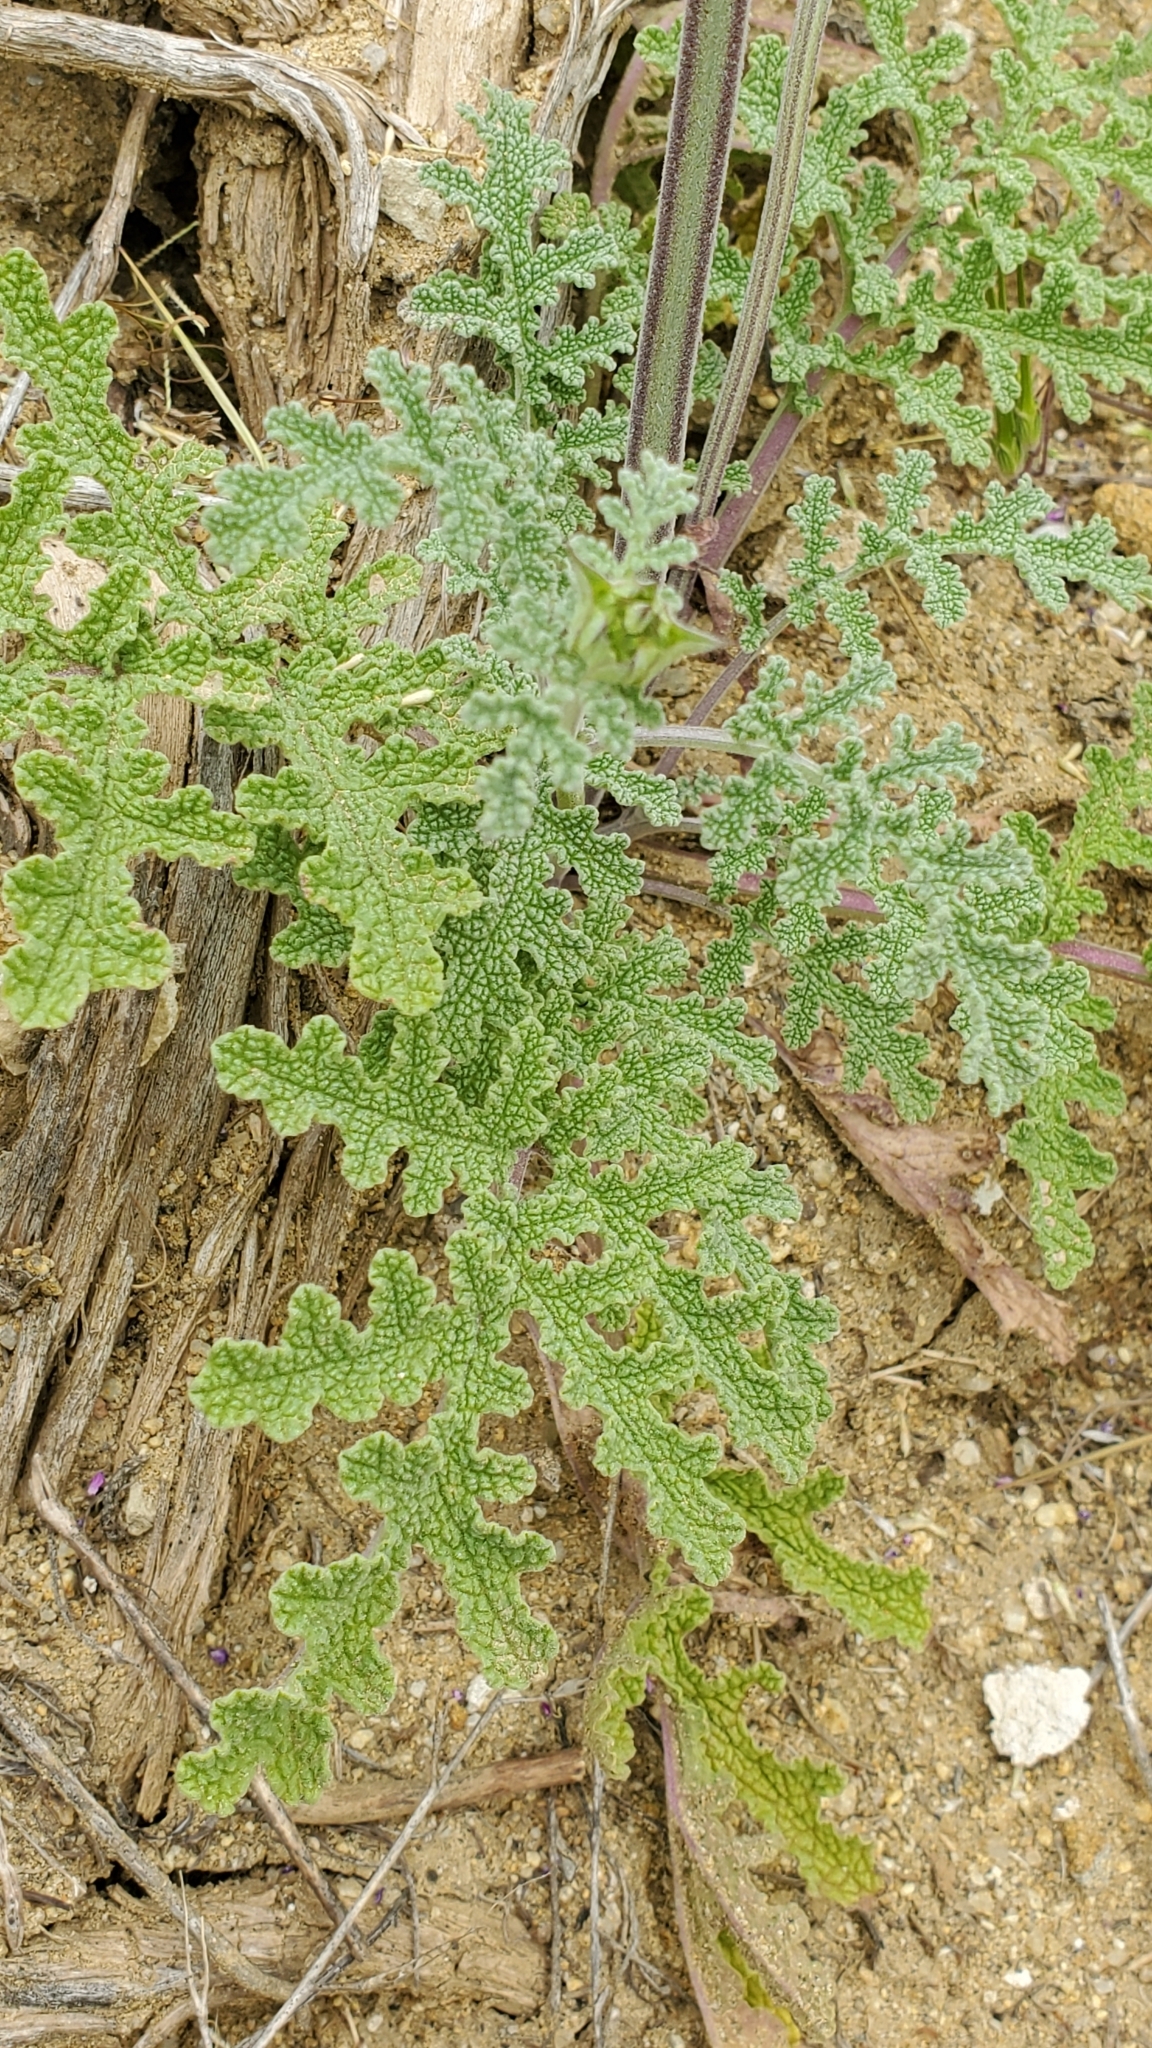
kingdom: Plantae
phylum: Tracheophyta
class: Magnoliopsida
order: Lamiales
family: Lamiaceae
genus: Salvia
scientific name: Salvia columbariae
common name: Chia
